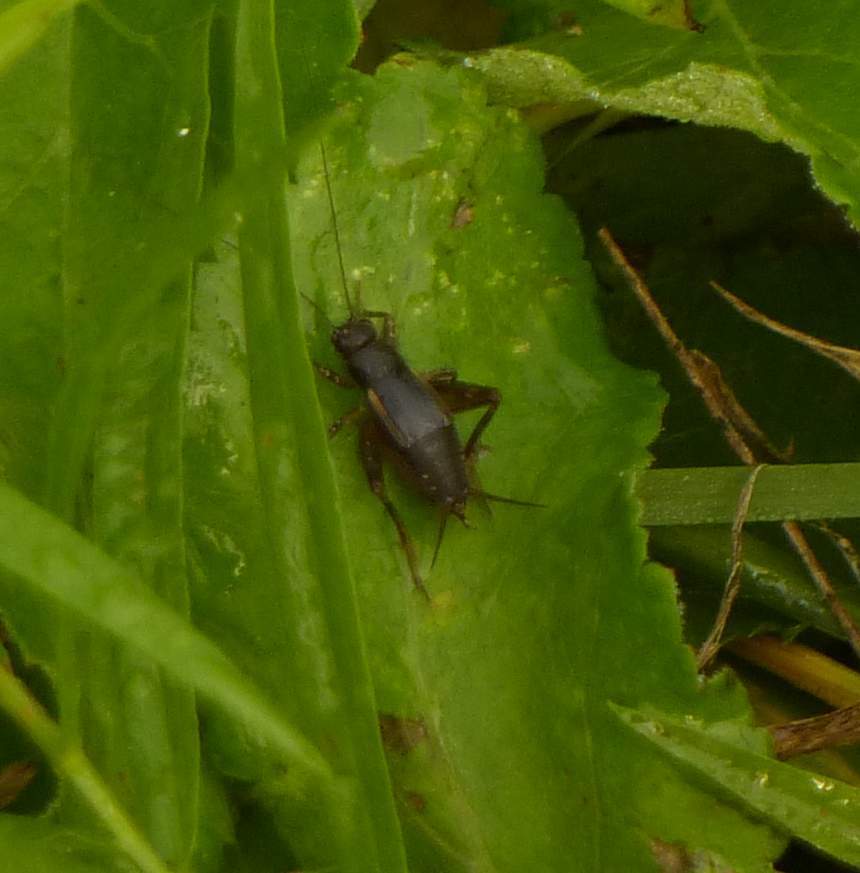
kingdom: Animalia
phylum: Arthropoda
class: Insecta
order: Orthoptera
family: Trigonidiidae
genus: Eunemobius
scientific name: Eunemobius carolinus
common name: Carolina ground cricket
